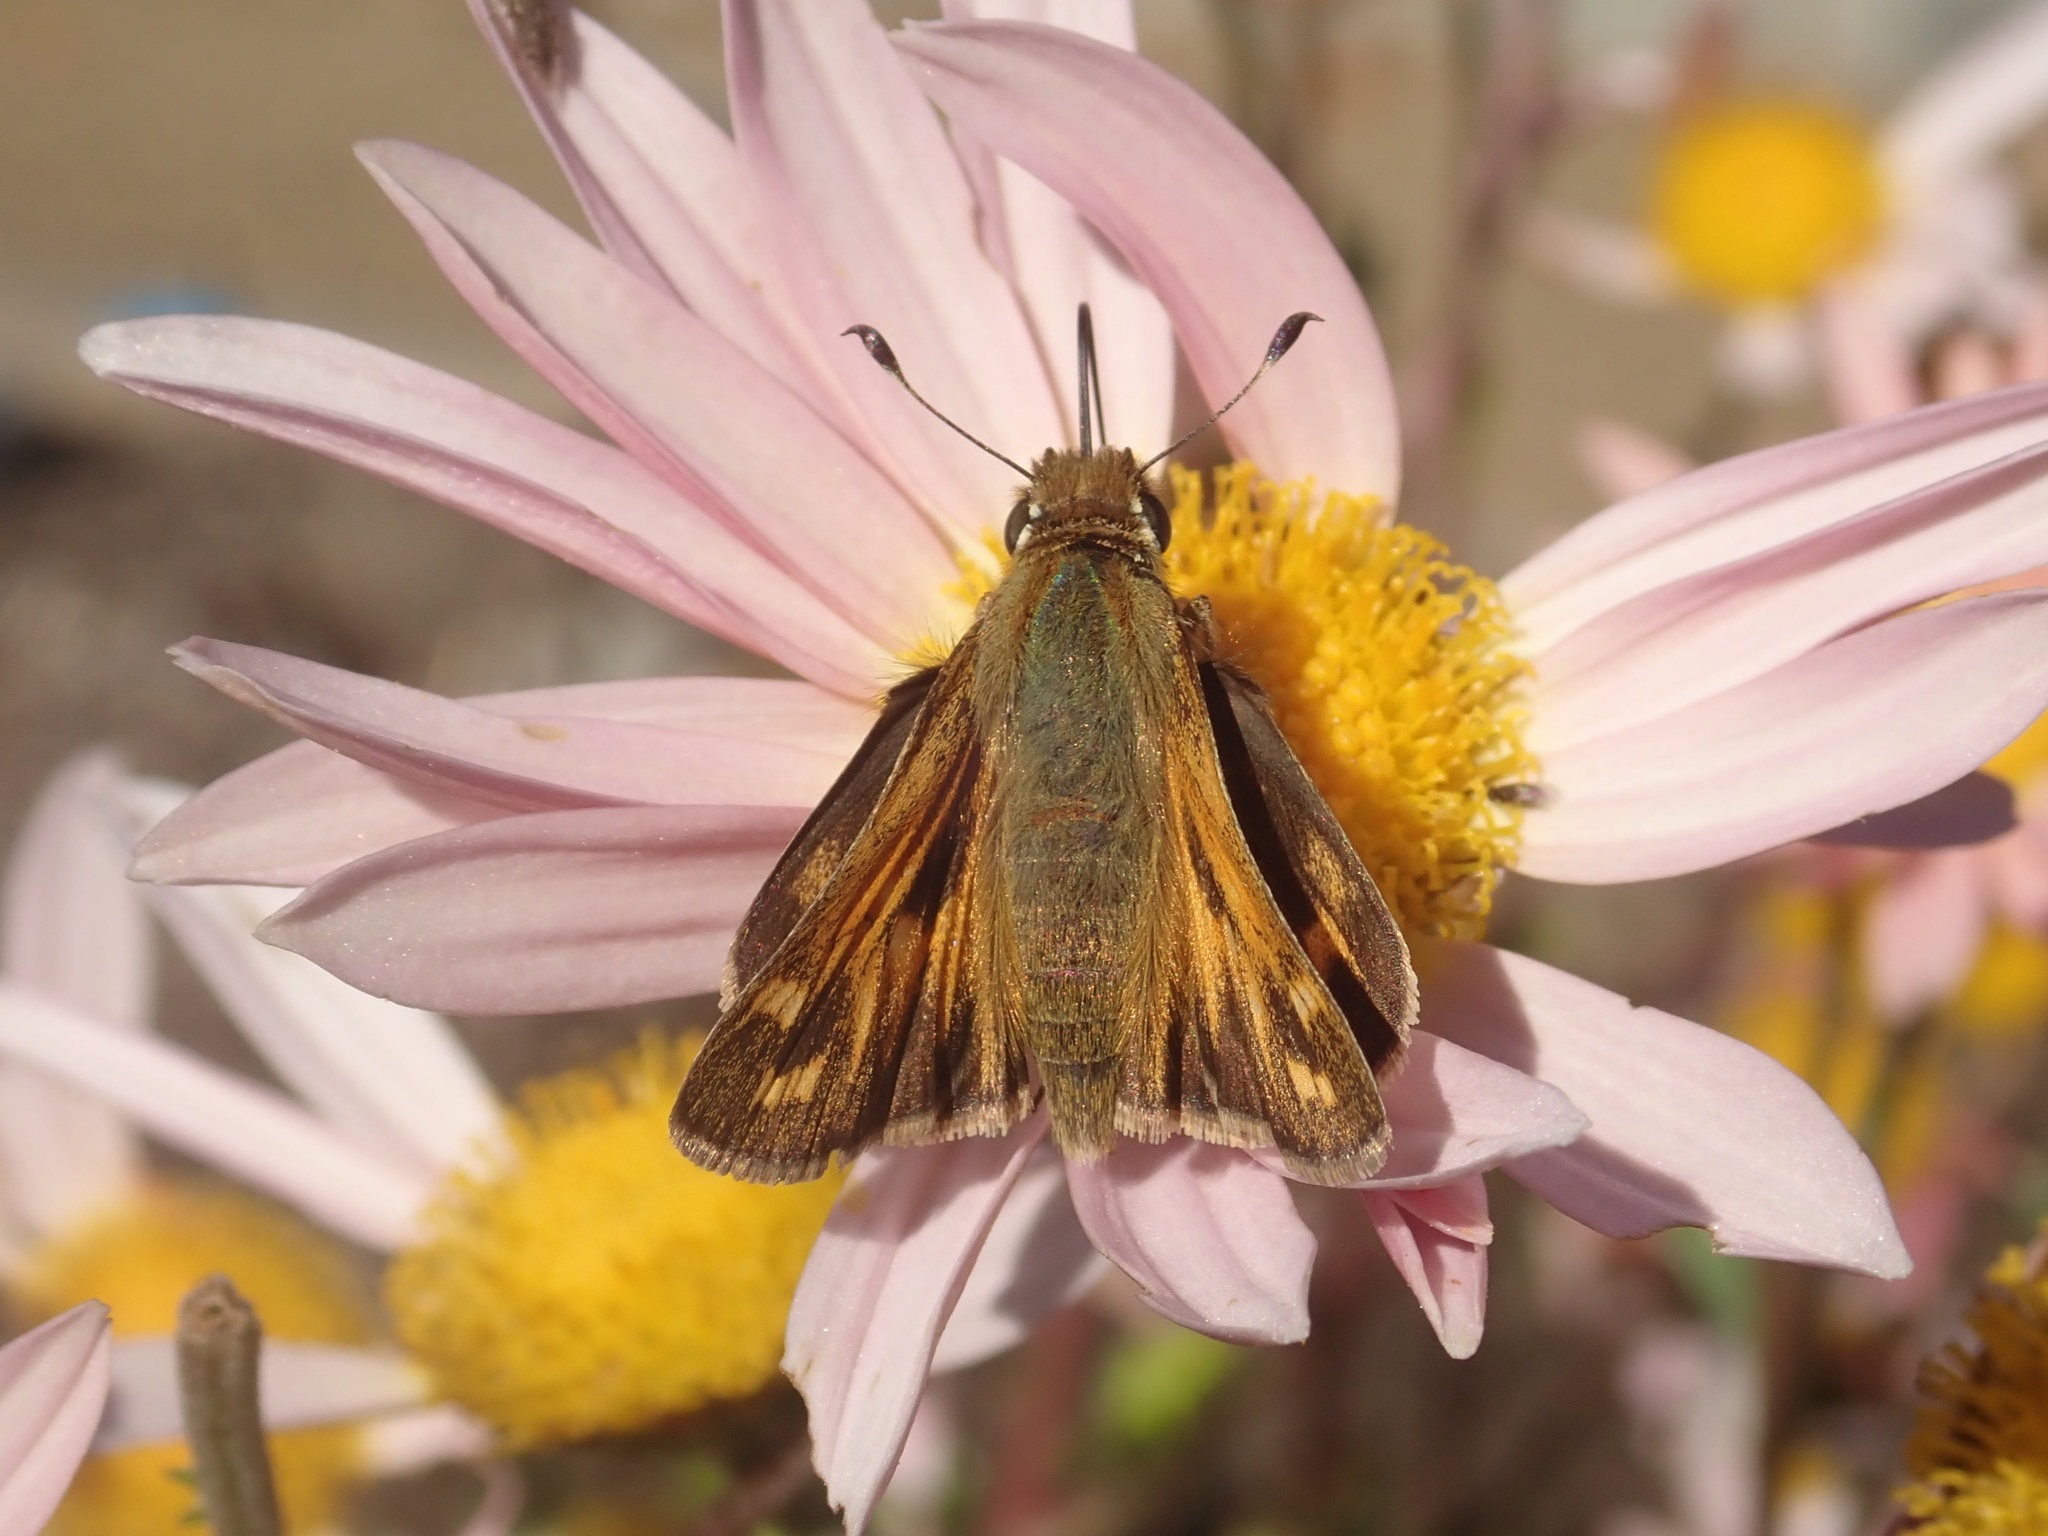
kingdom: Animalia
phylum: Arthropoda
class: Insecta
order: Lepidoptera
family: Hesperiidae
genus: Atalopedes
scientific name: Atalopedes campestris
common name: Sachem
